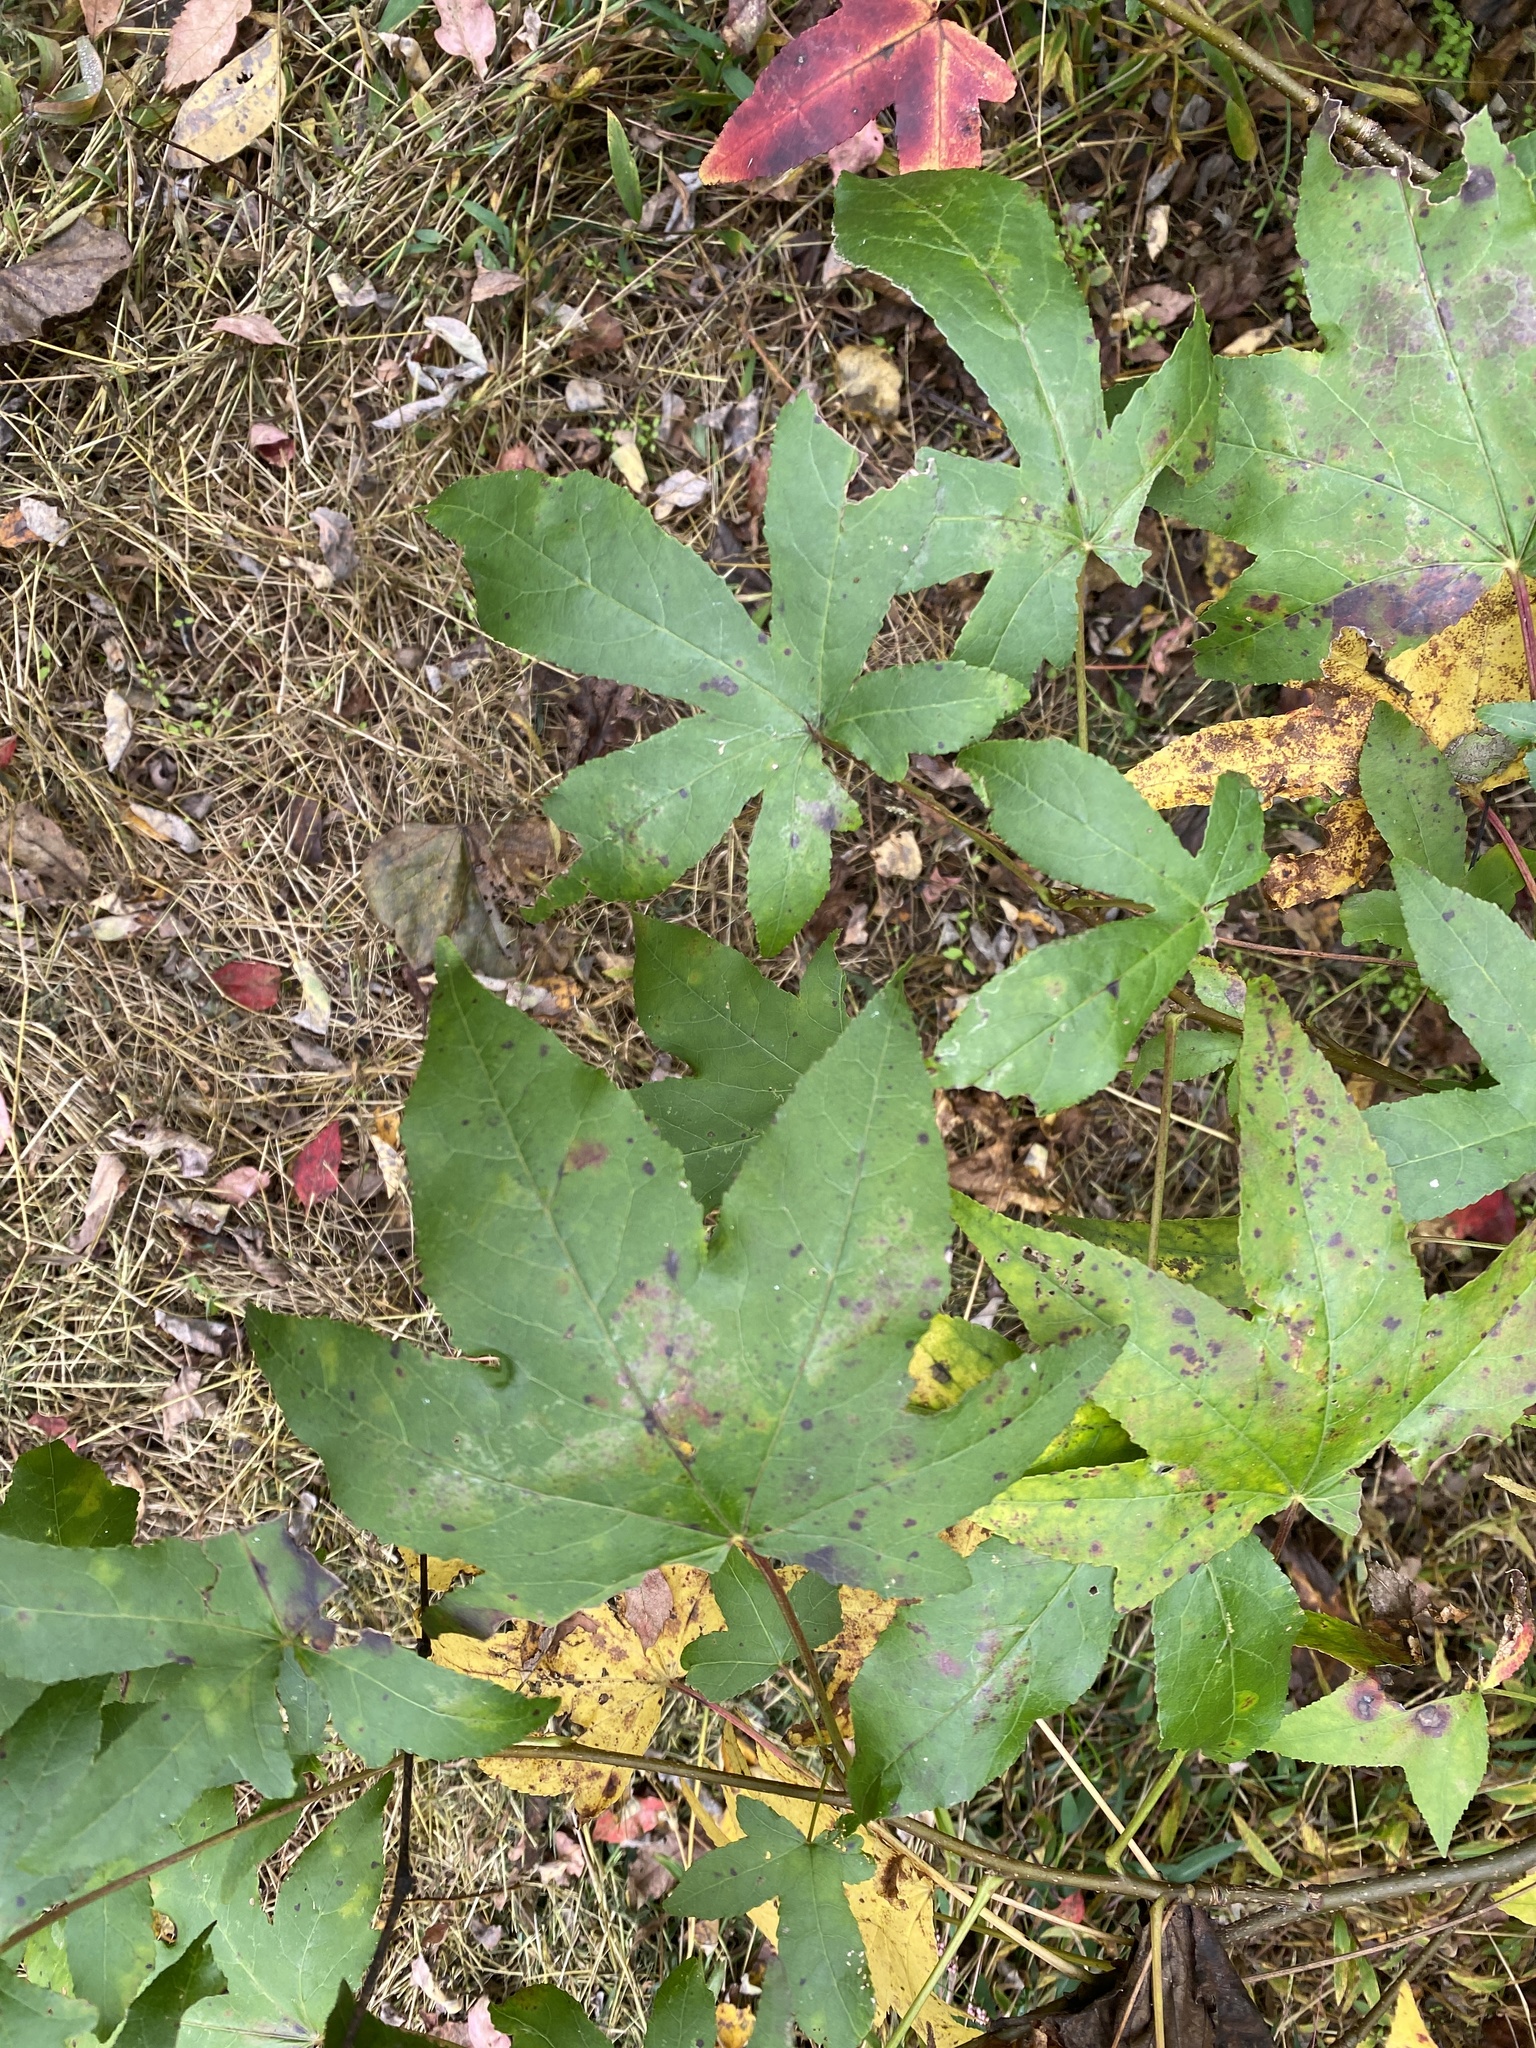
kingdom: Plantae
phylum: Tracheophyta
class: Magnoliopsida
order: Saxifragales
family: Altingiaceae
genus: Liquidambar
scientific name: Liquidambar styraciflua
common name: Sweet gum
